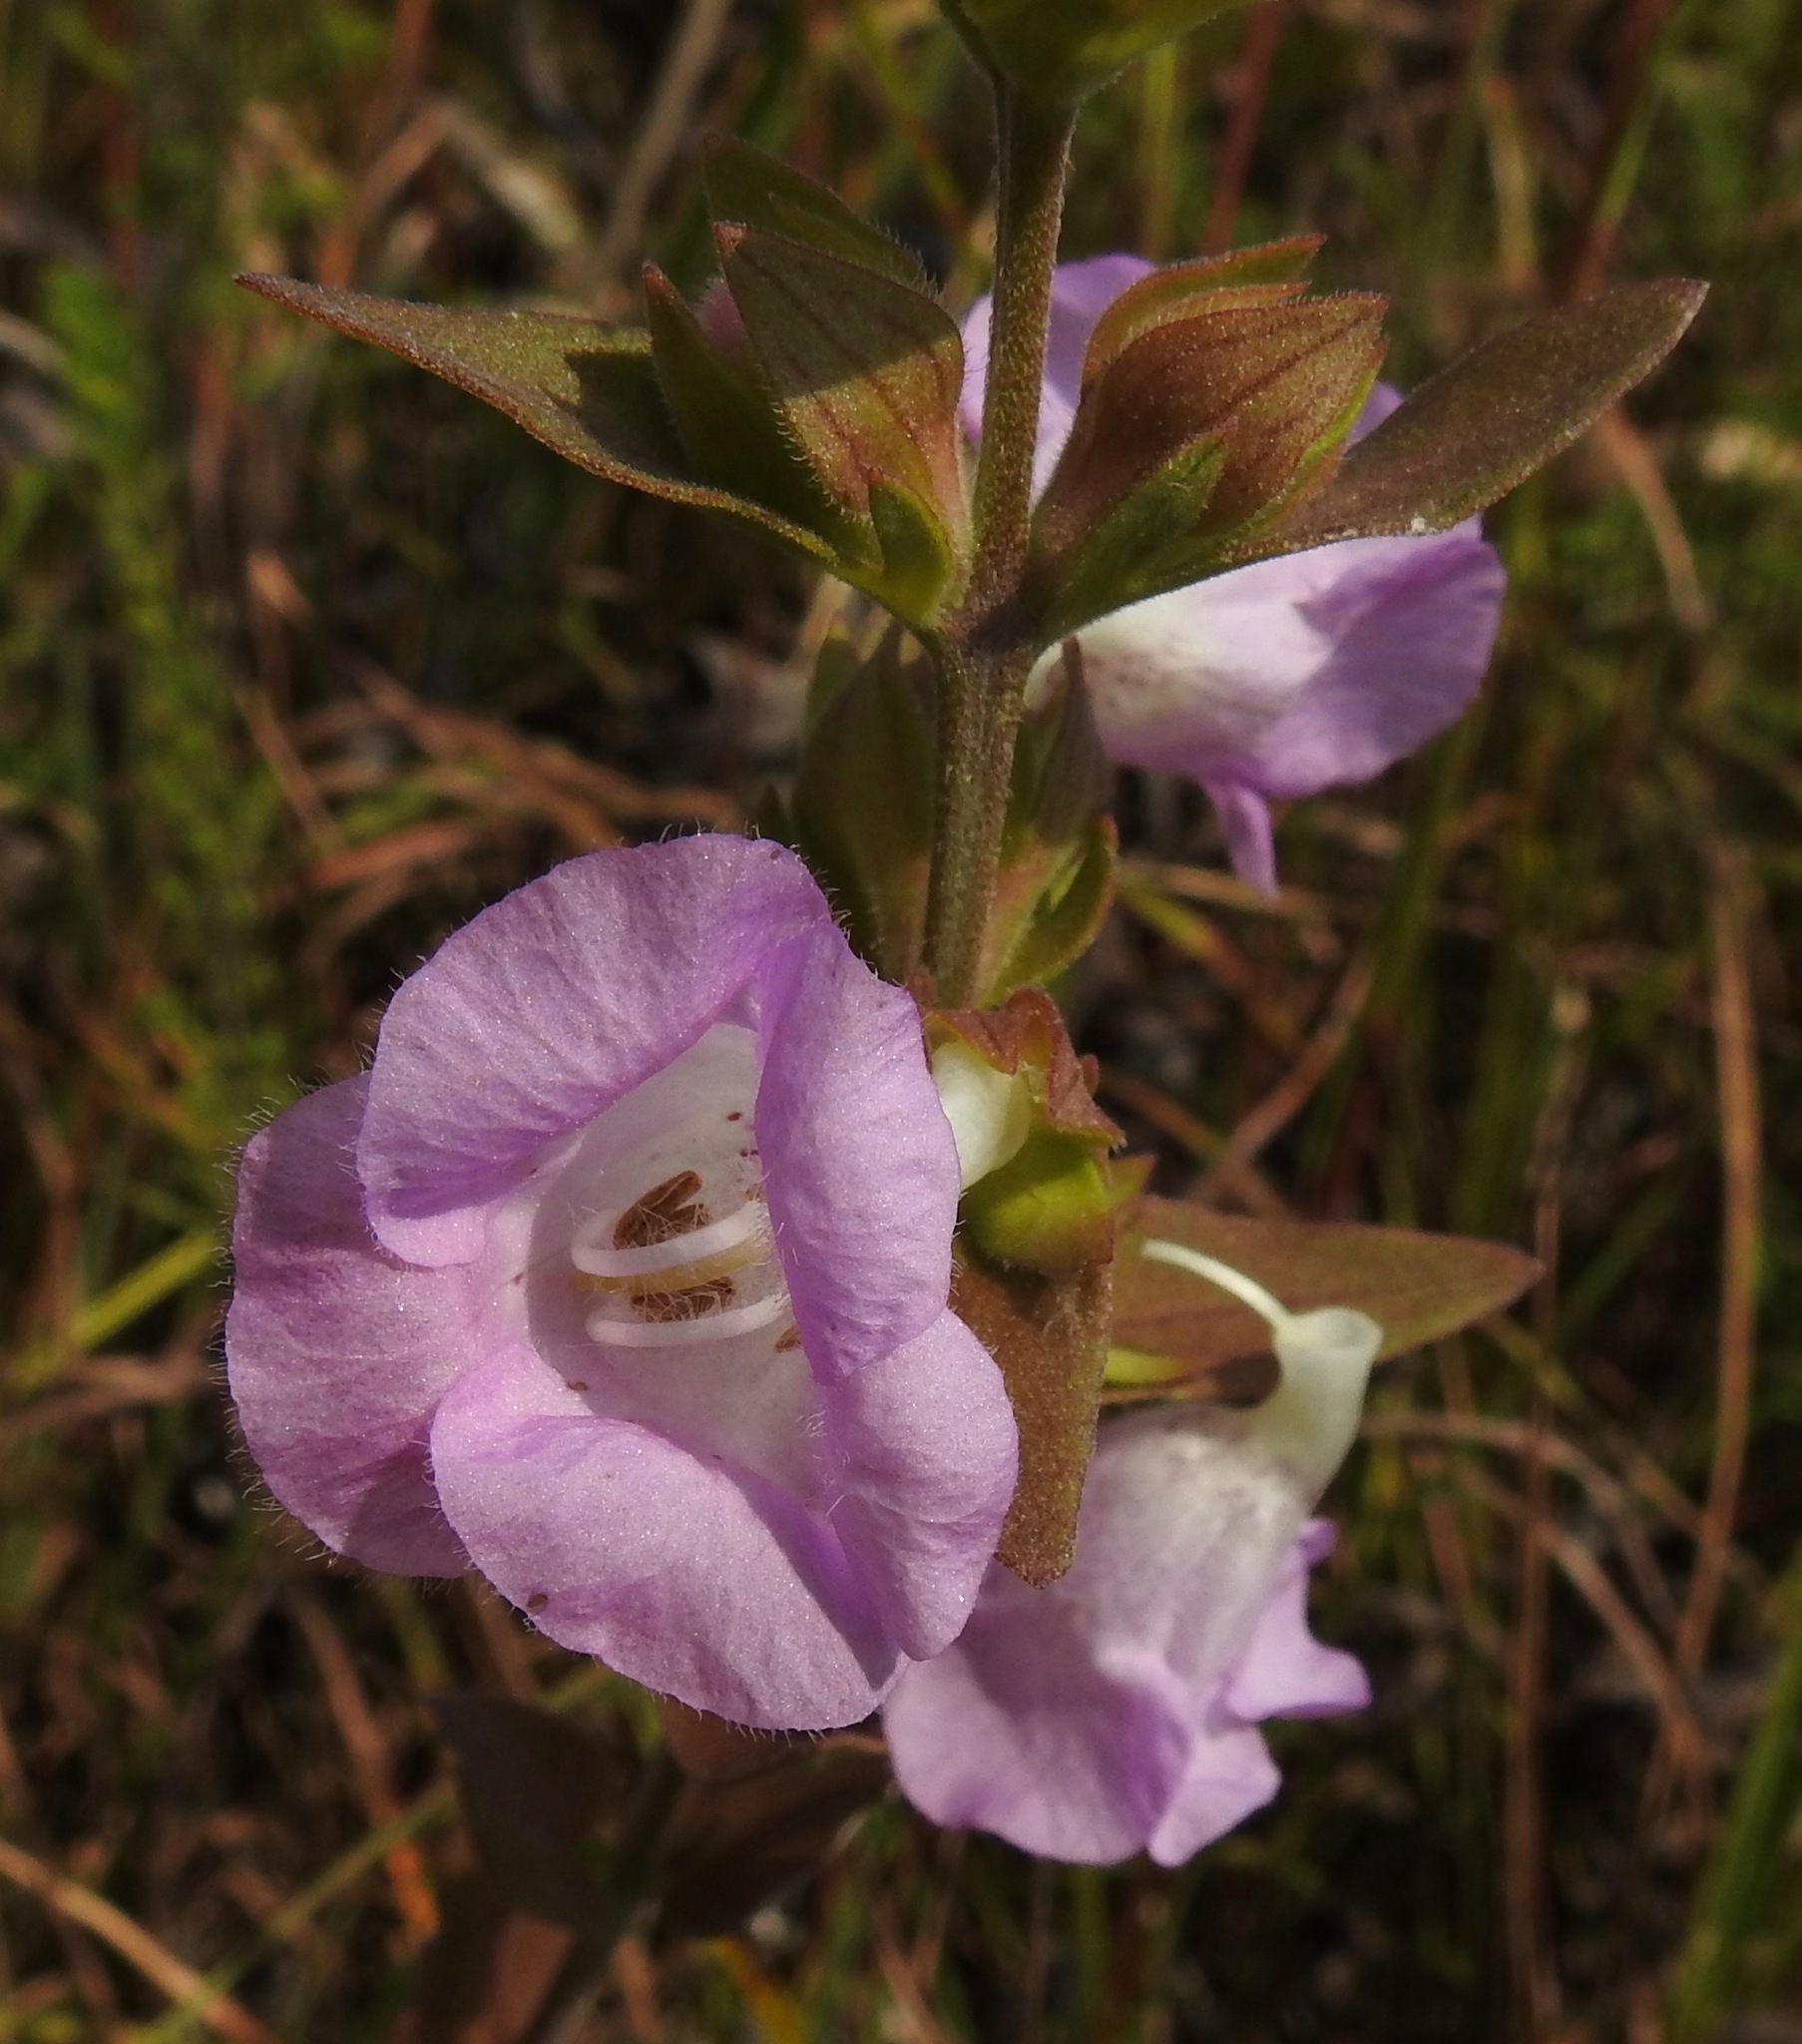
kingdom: Plantae
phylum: Tracheophyta
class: Magnoliopsida
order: Lamiales
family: Orobanchaceae
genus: Agalinis
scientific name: Agalinis auriculata
